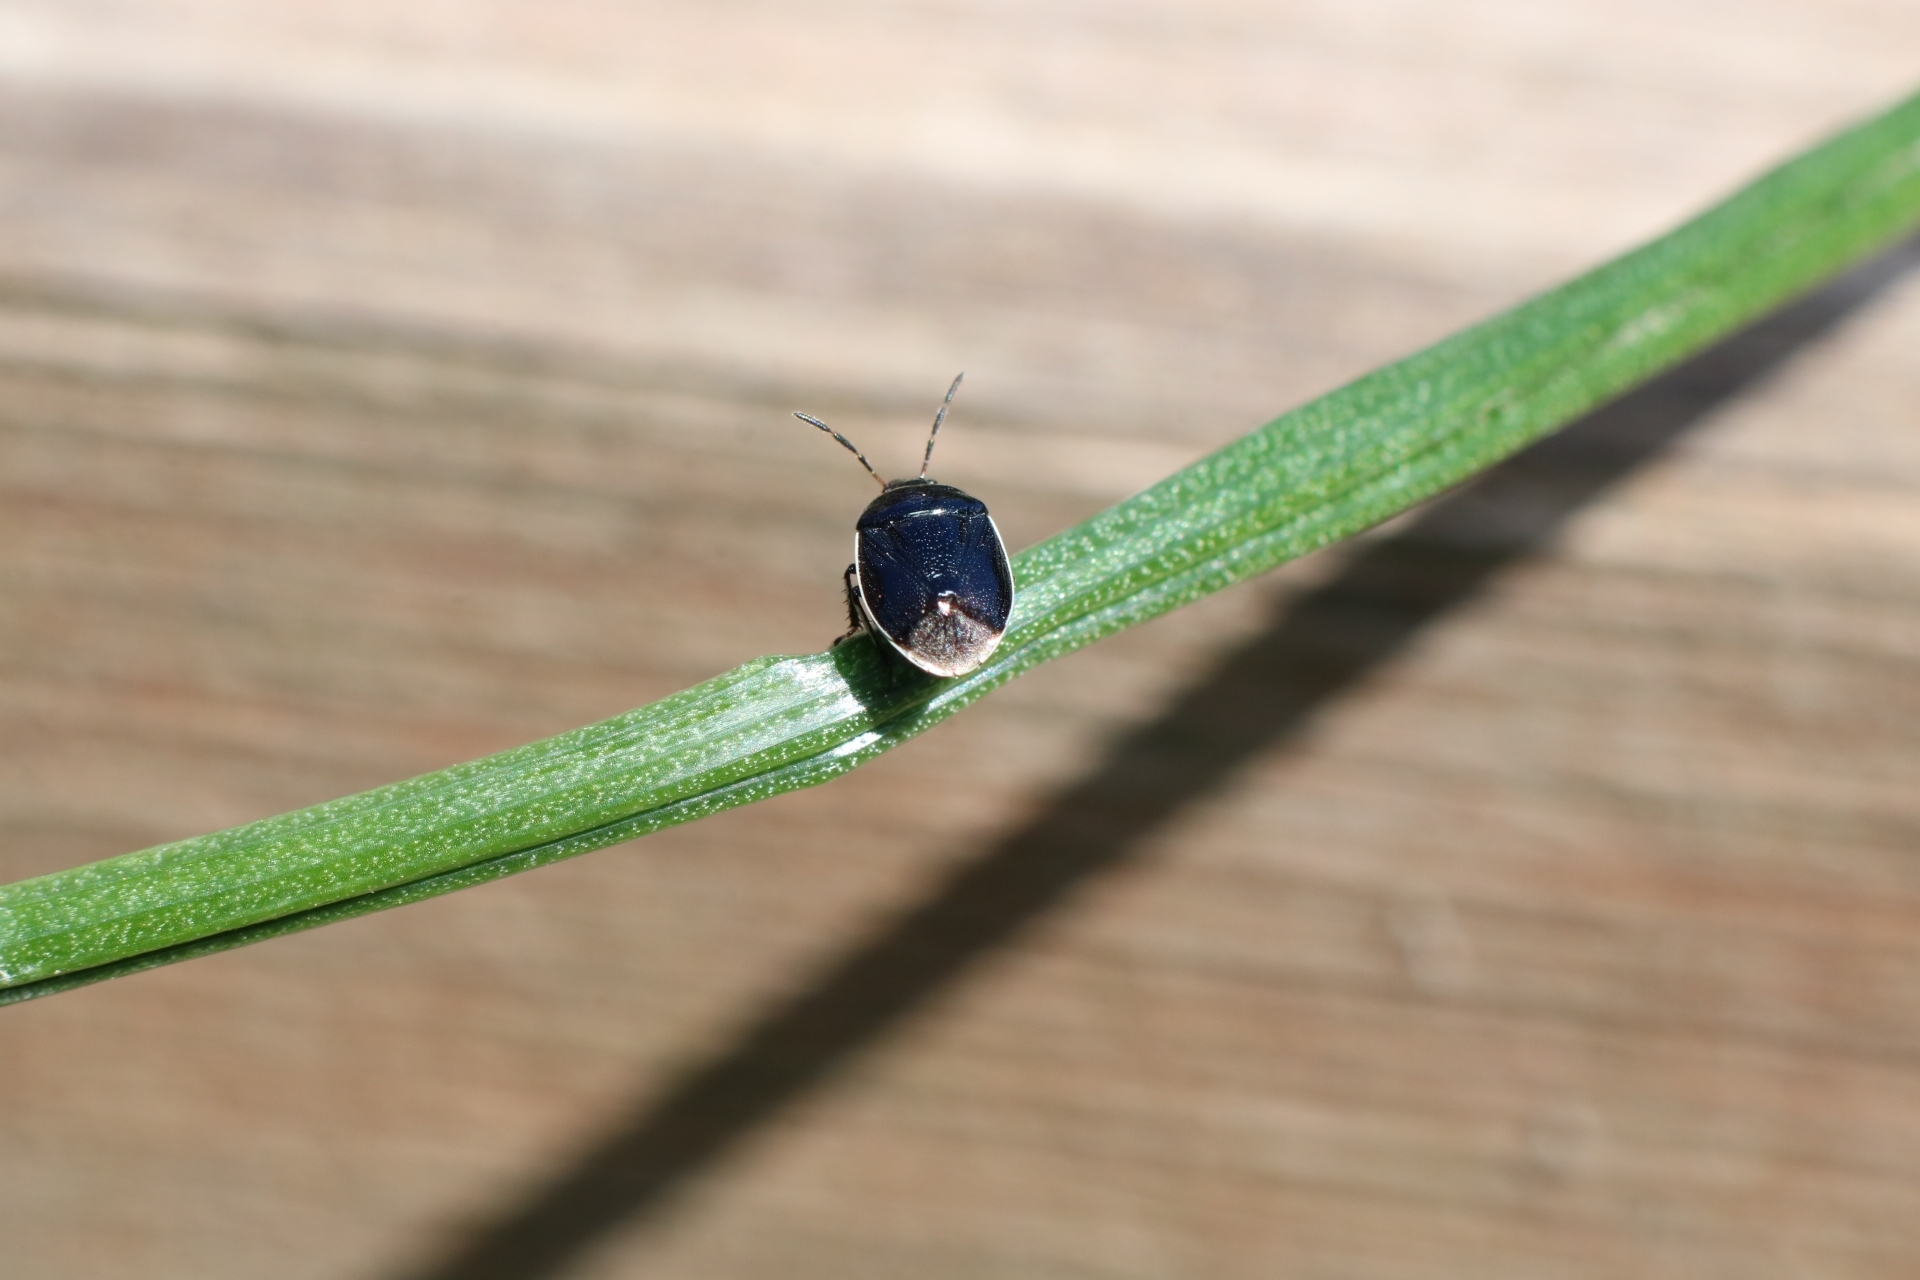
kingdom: Animalia
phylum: Arthropoda
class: Insecta
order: Hemiptera
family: Cydnidae
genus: Sehirus
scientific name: Sehirus cinctus
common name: White-margined burrower bug
